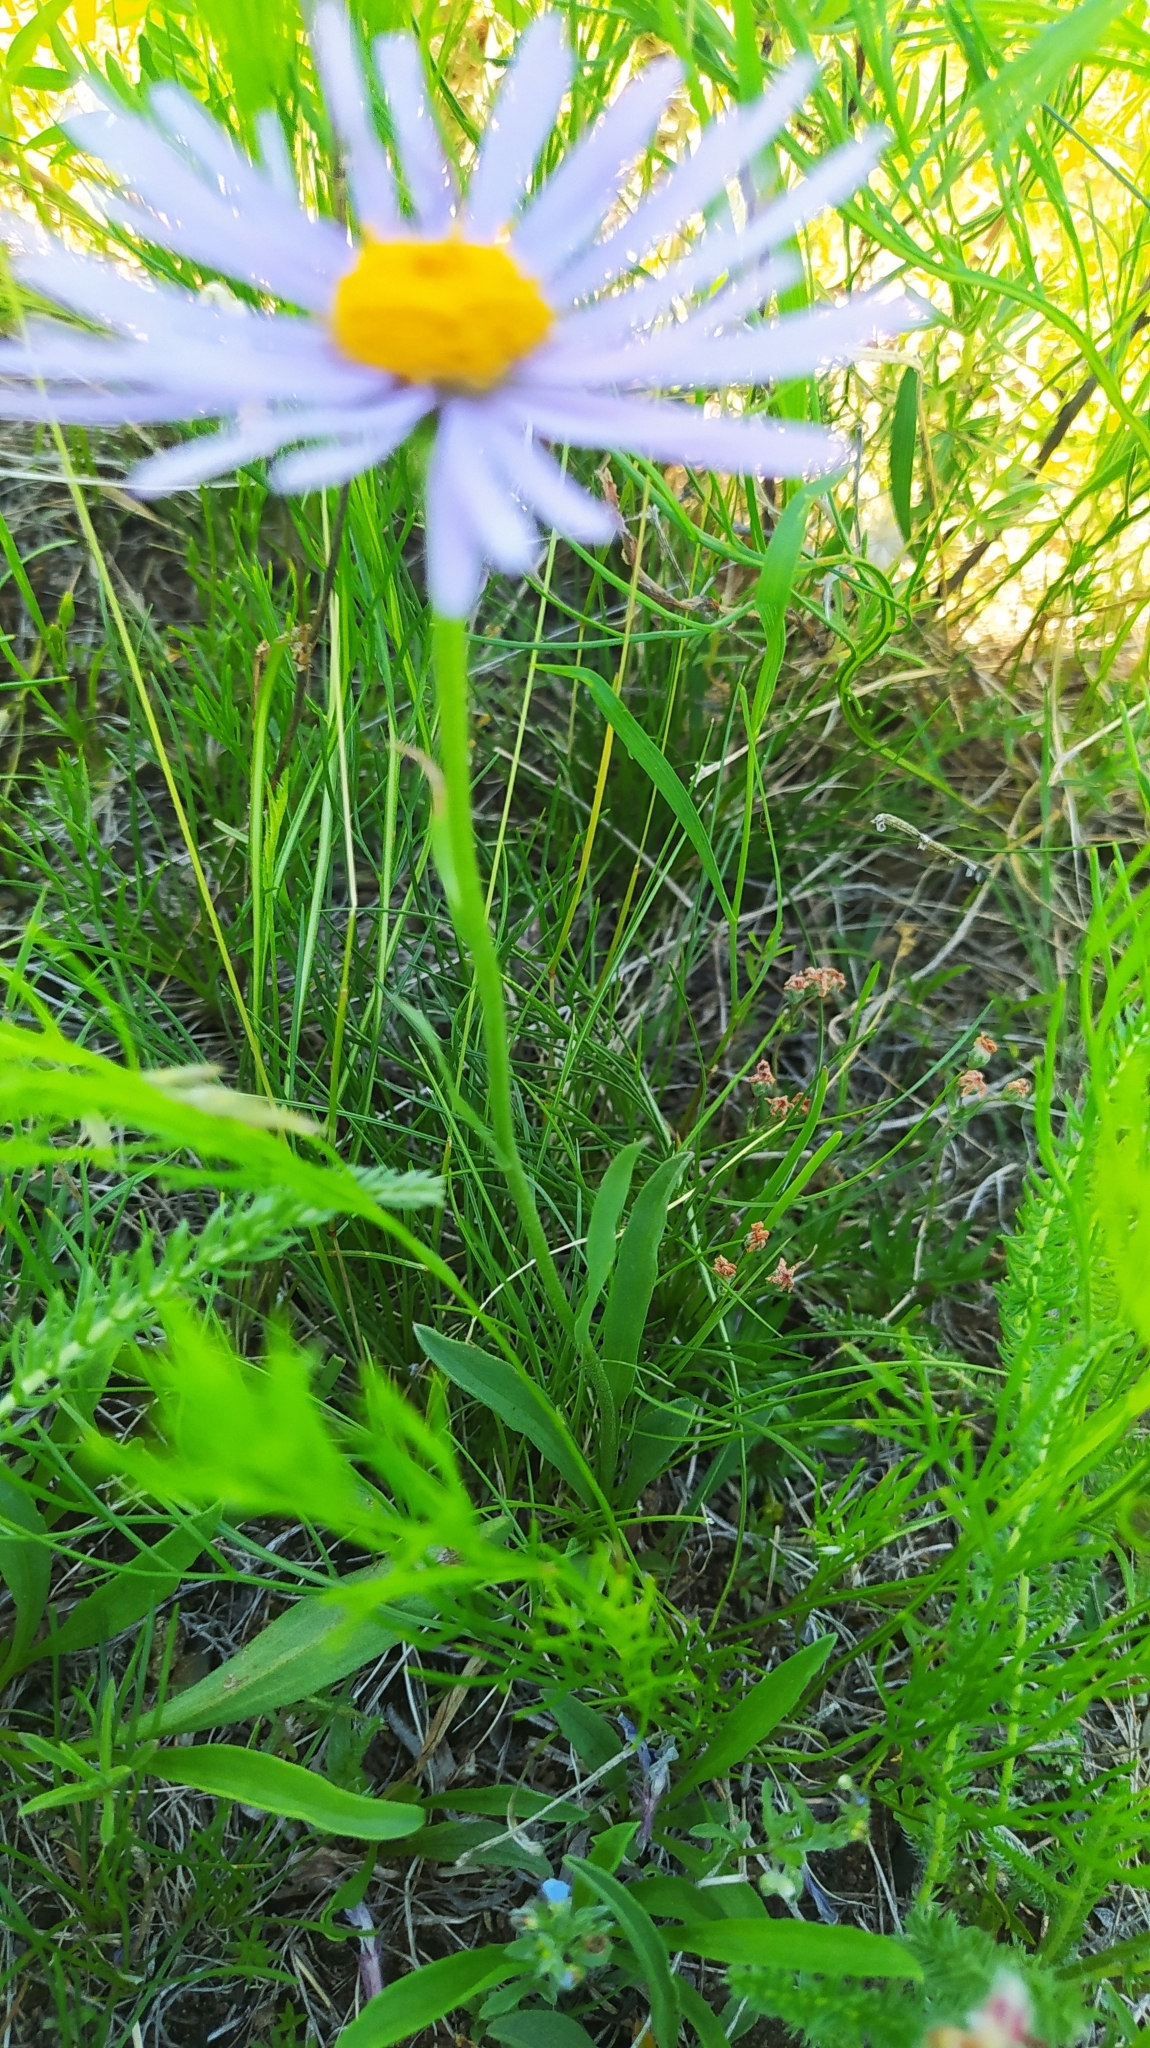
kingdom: Plantae
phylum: Tracheophyta
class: Magnoliopsida
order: Asterales
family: Asteraceae
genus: Aster
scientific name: Aster alpinus
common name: Alpine aster
